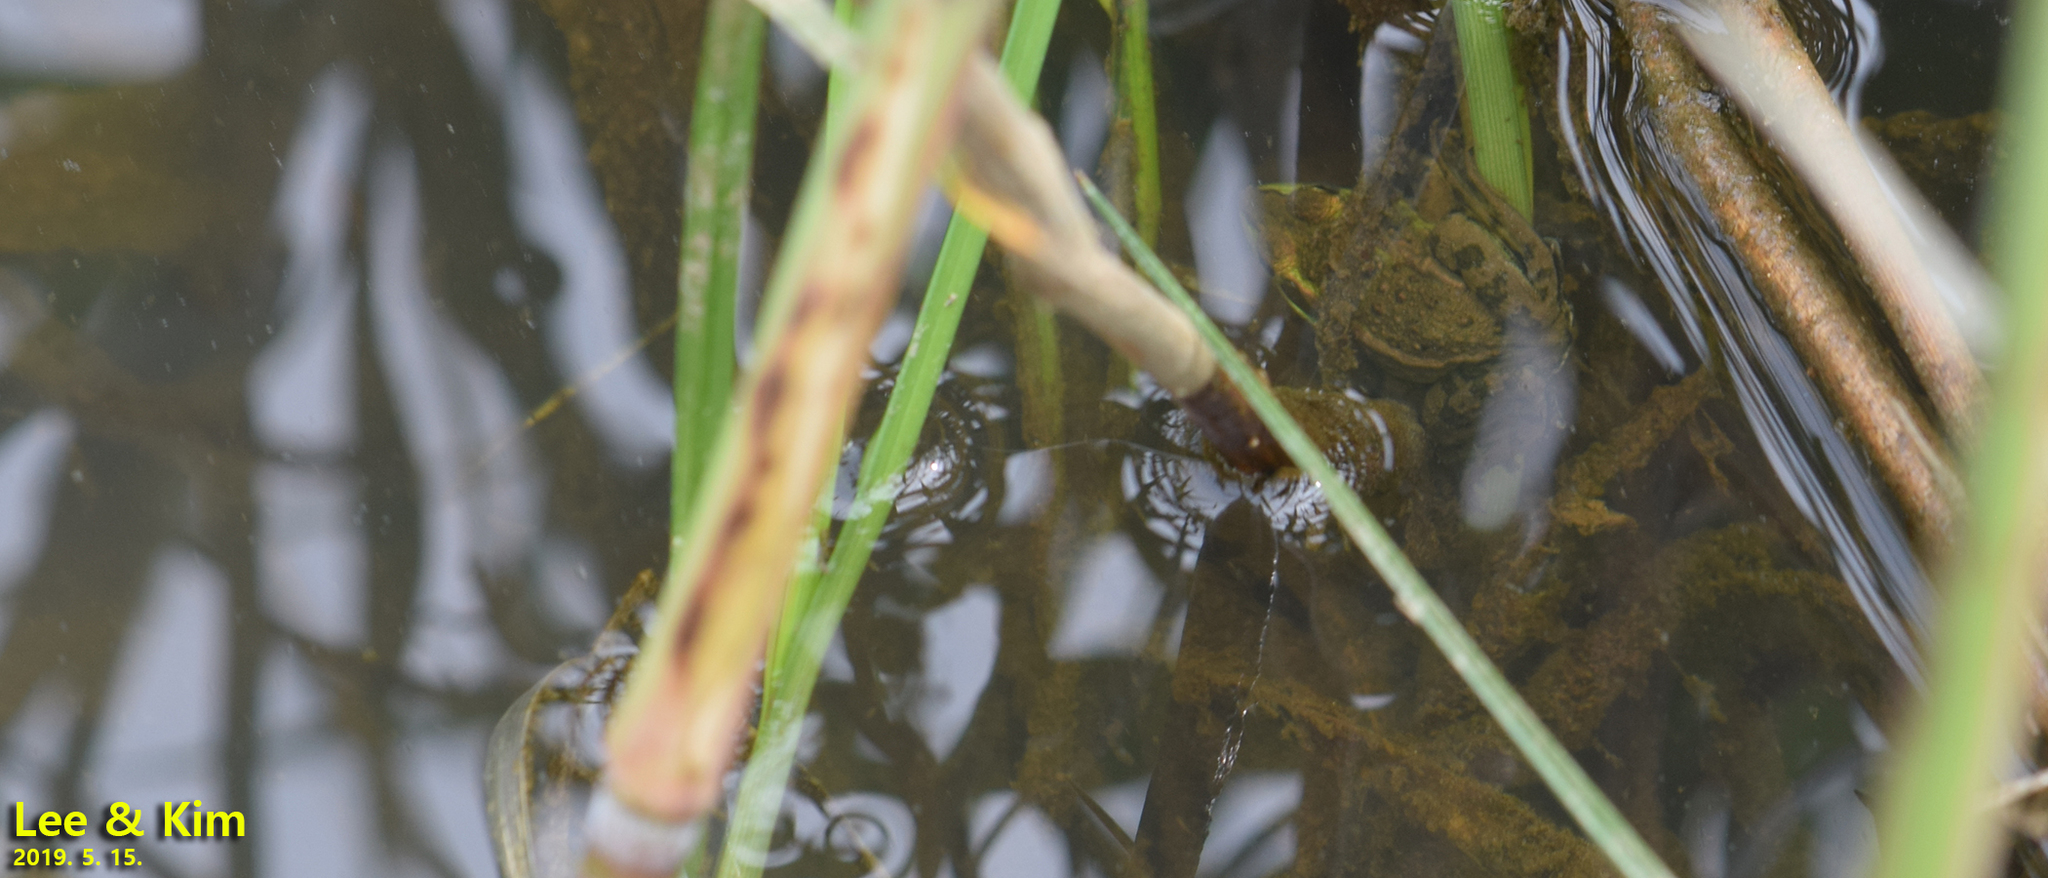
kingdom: Animalia
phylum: Chordata
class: Amphibia
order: Anura
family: Ranidae
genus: Pelophylax
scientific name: Pelophylax chosenicus
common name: Gold-spotted pond frog
